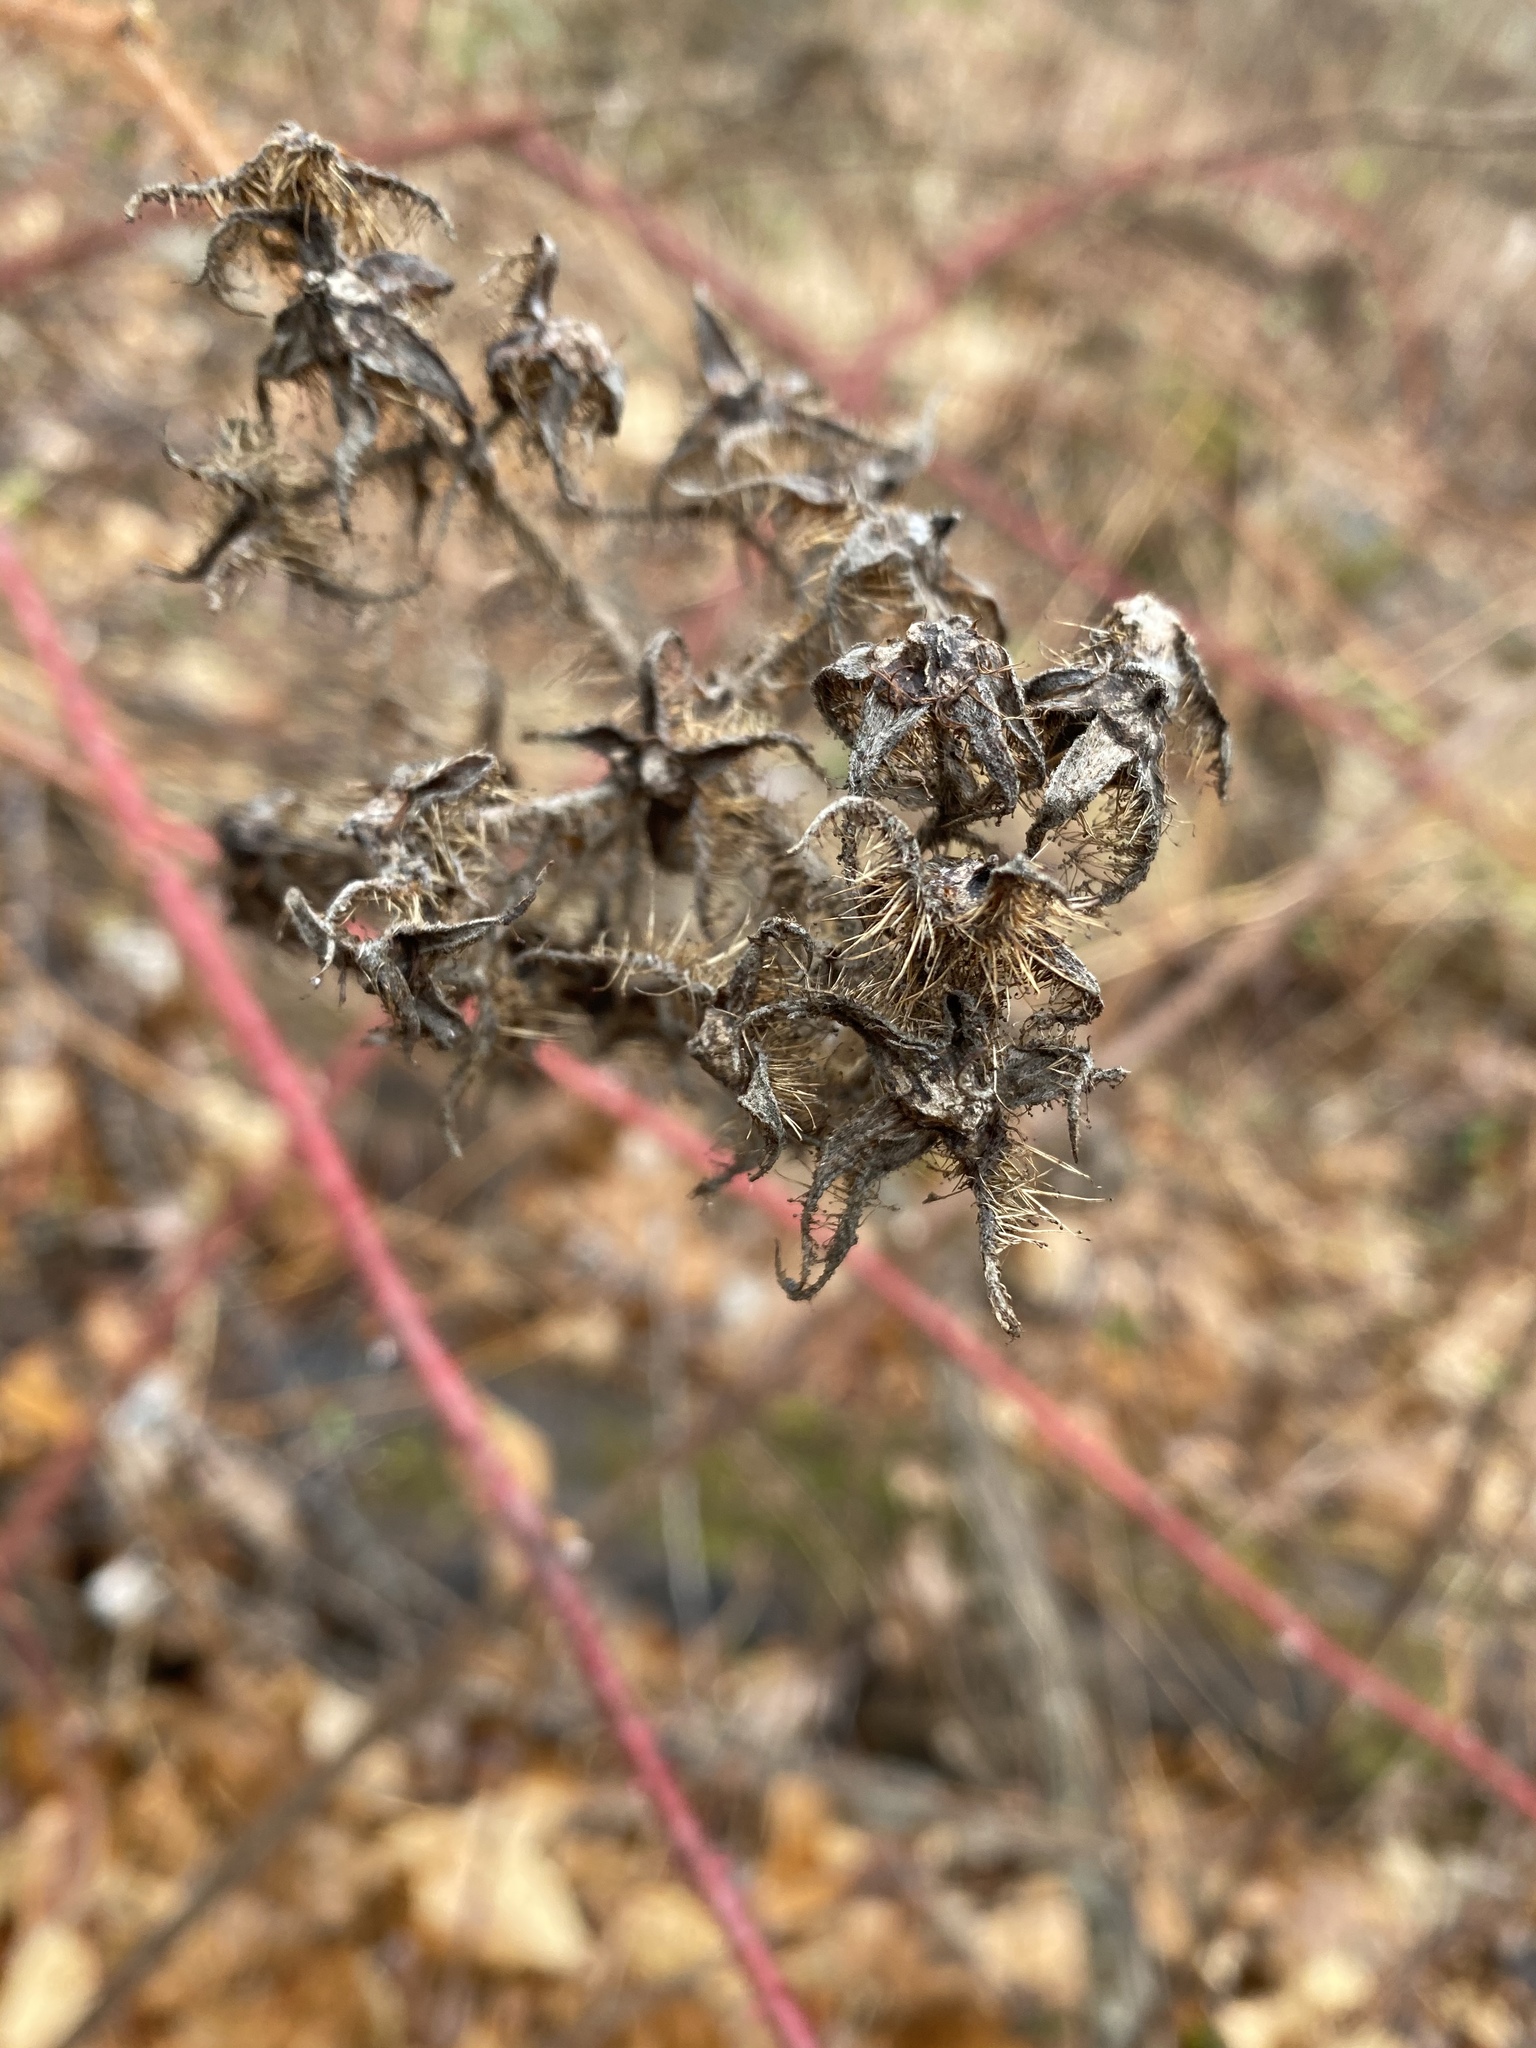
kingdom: Plantae
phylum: Tracheophyta
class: Magnoliopsida
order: Rosales
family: Rosaceae
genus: Rubus
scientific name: Rubus phoenicolasius
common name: Japanese wineberry
